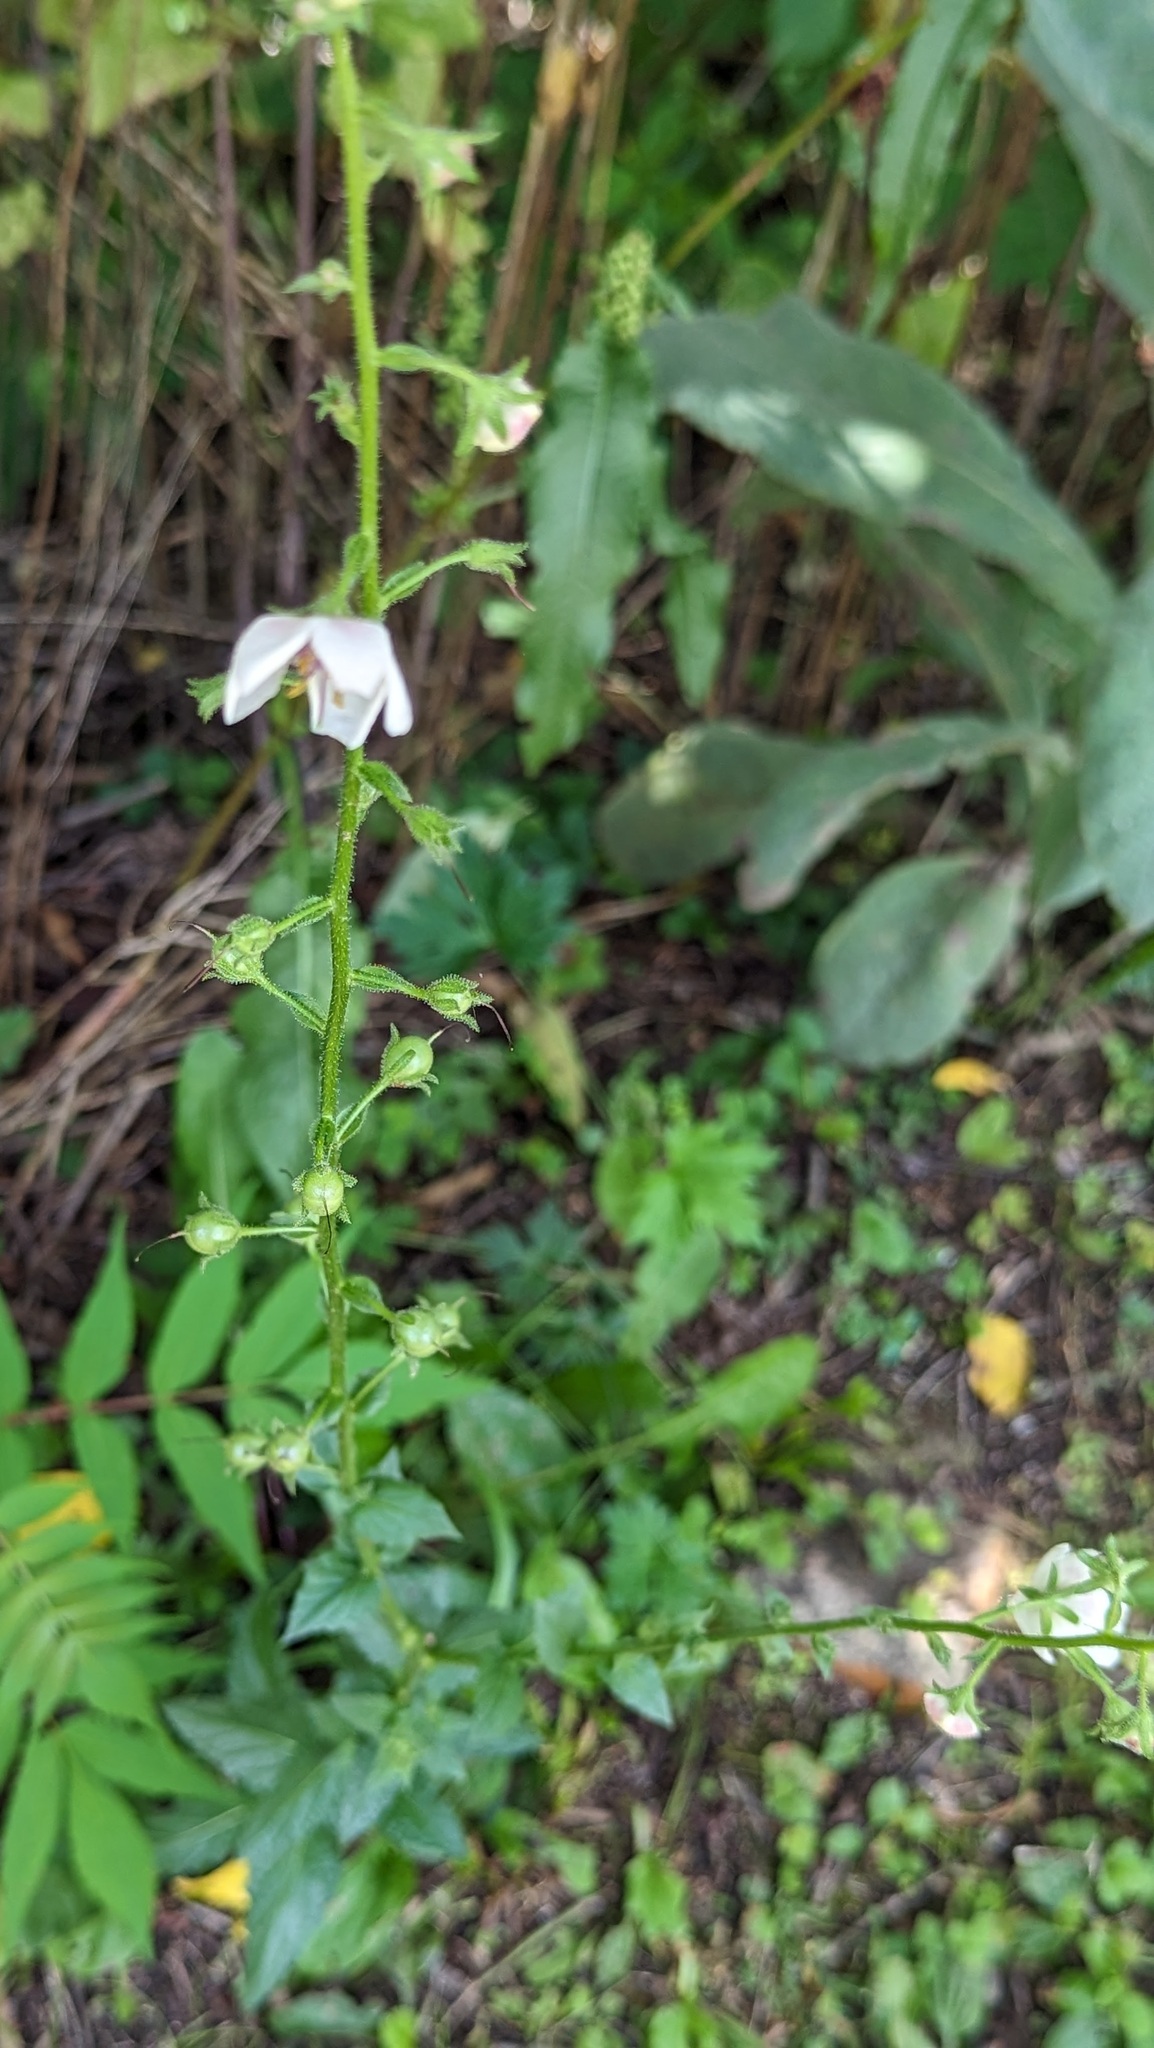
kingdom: Plantae
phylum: Tracheophyta
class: Magnoliopsida
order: Lamiales
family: Scrophulariaceae
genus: Verbascum
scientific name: Verbascum blattaria
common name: Moth mullein
